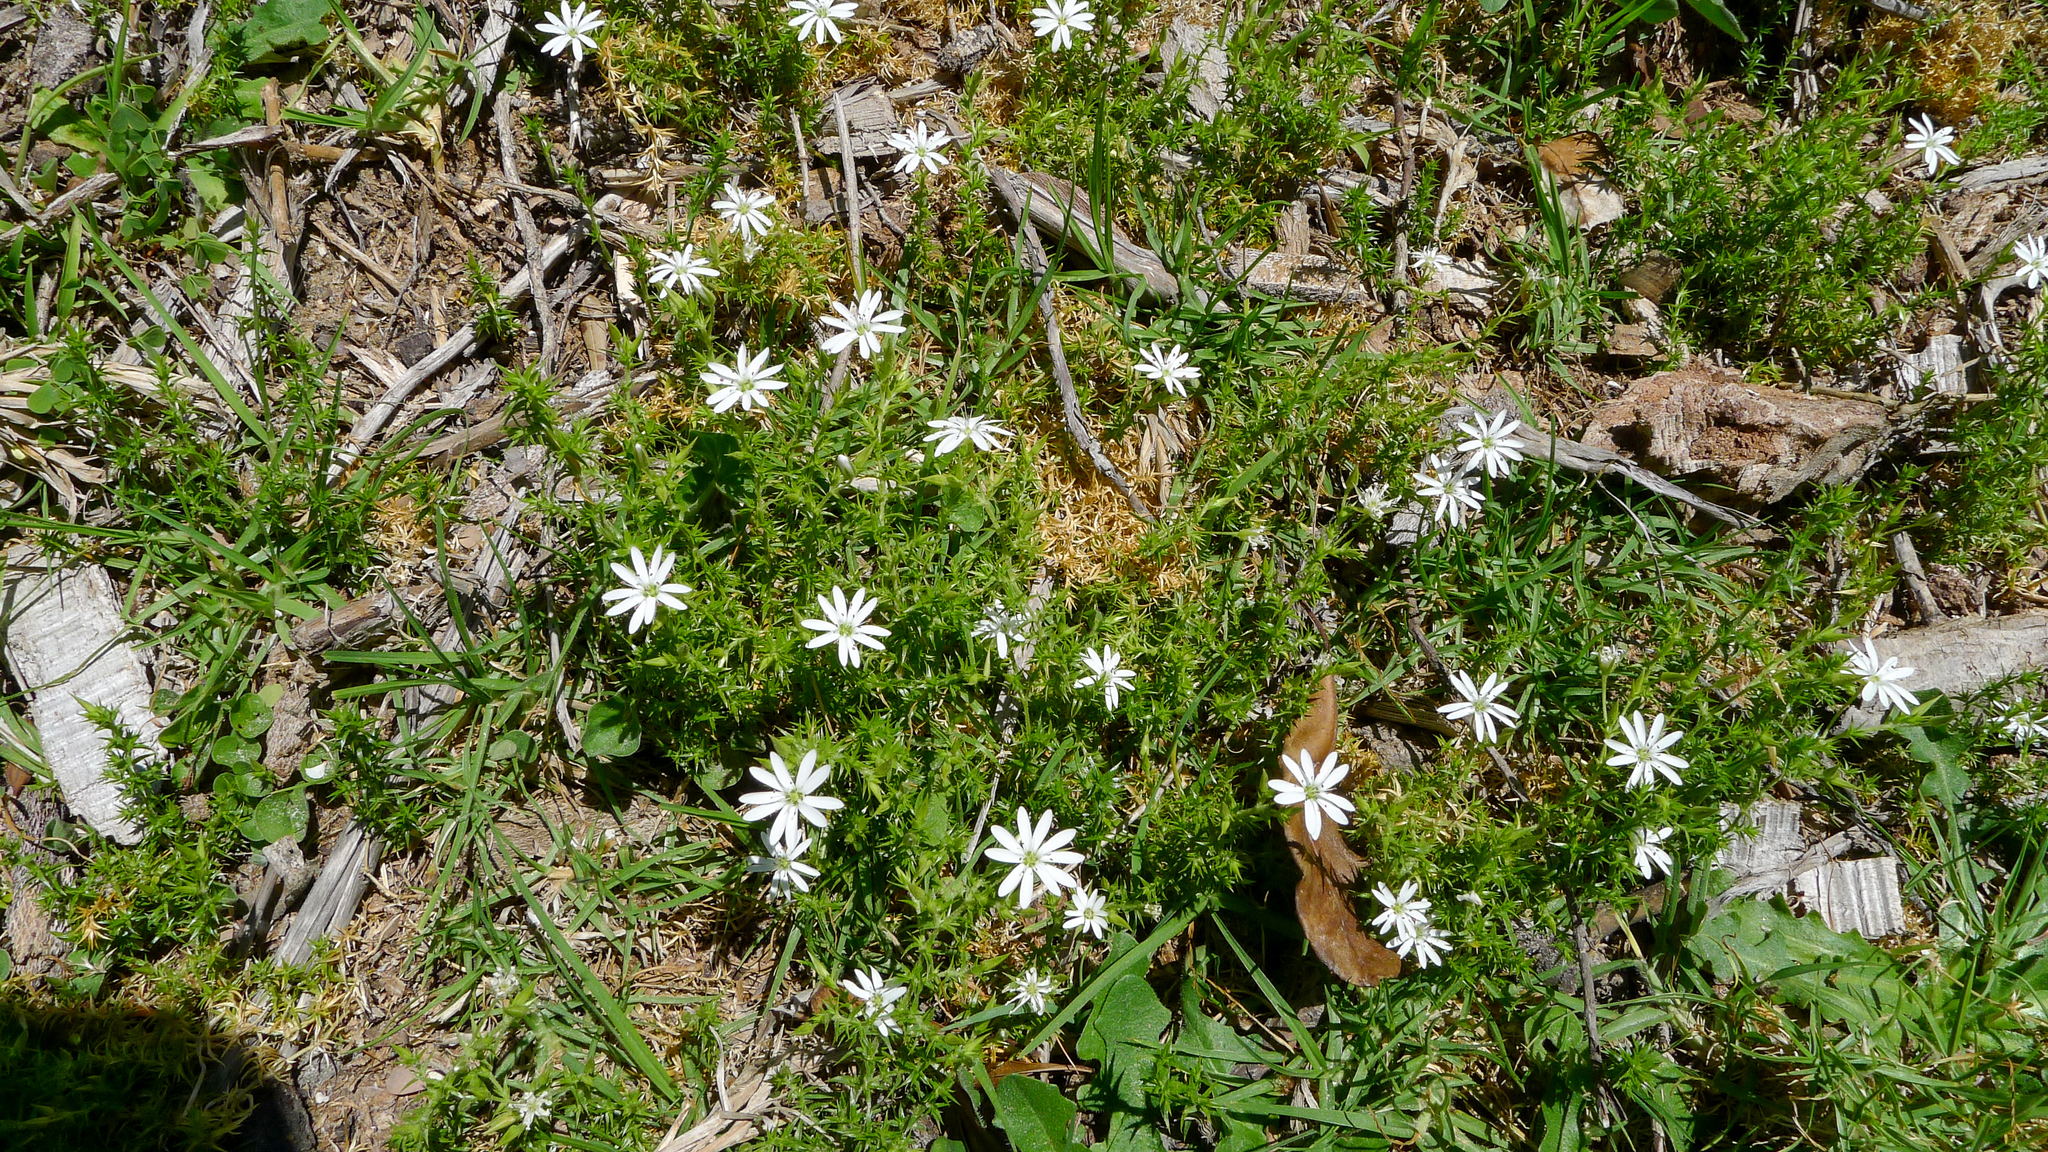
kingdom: Plantae
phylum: Tracheophyta
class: Magnoliopsida
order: Caryophyllales
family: Caryophyllaceae
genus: Stellaria
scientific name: Stellaria pungens
